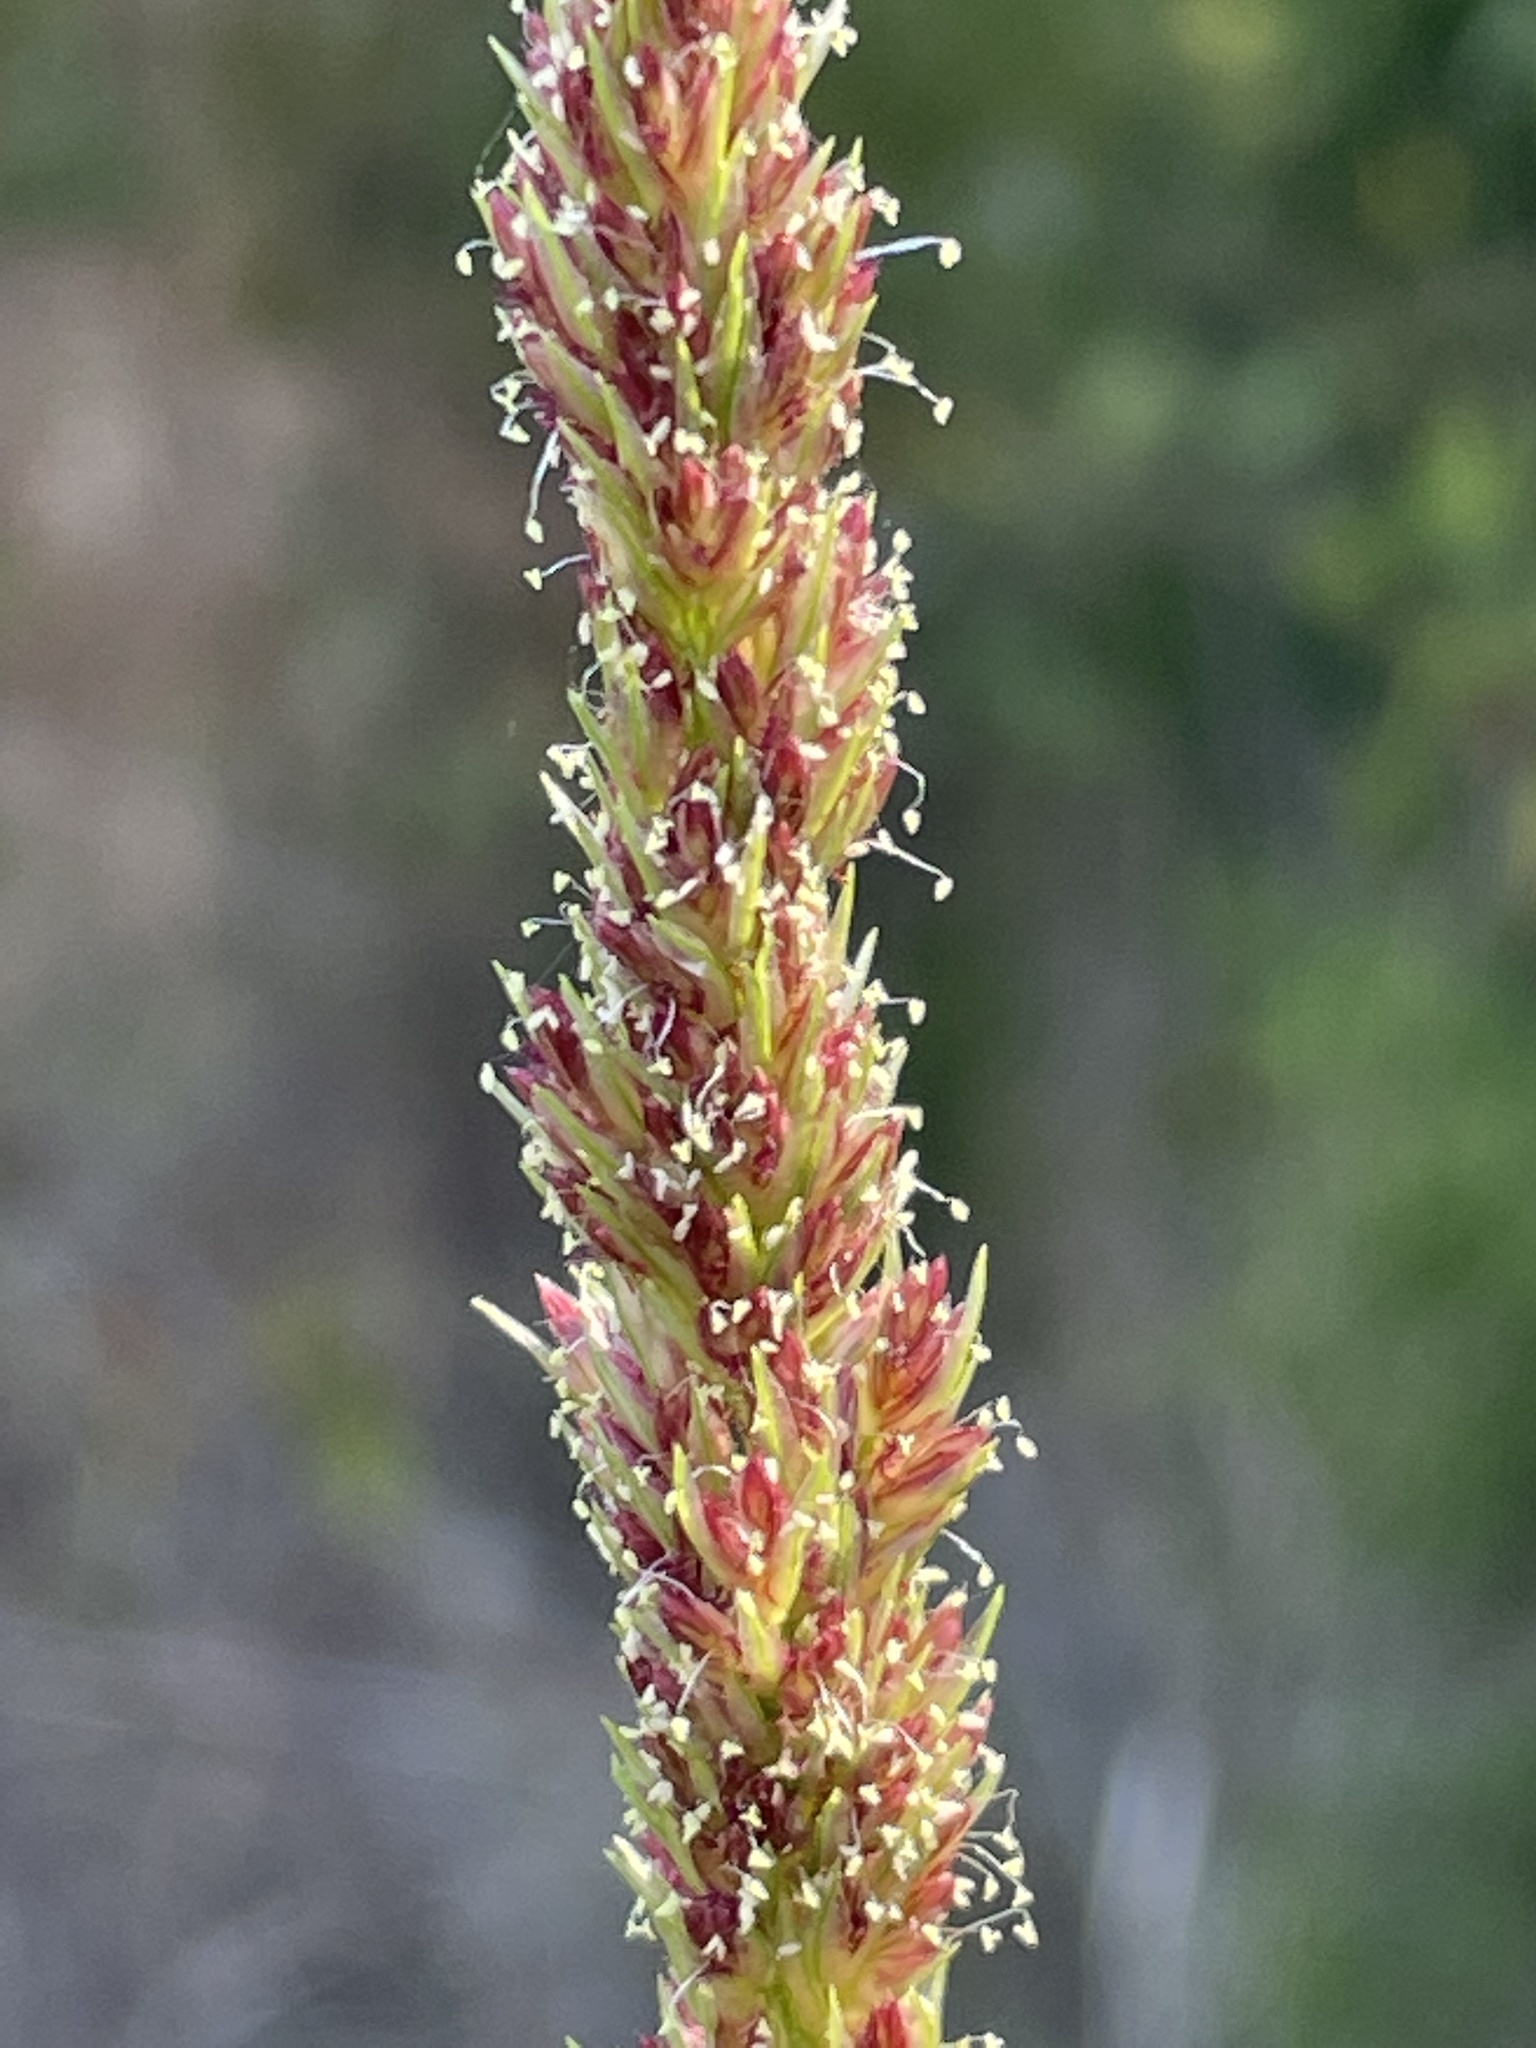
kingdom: Plantae
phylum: Tracheophyta
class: Liliopsida
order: Poales
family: Poaceae
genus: Tridens
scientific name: Tridens strictus
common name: Long-spike tridens
